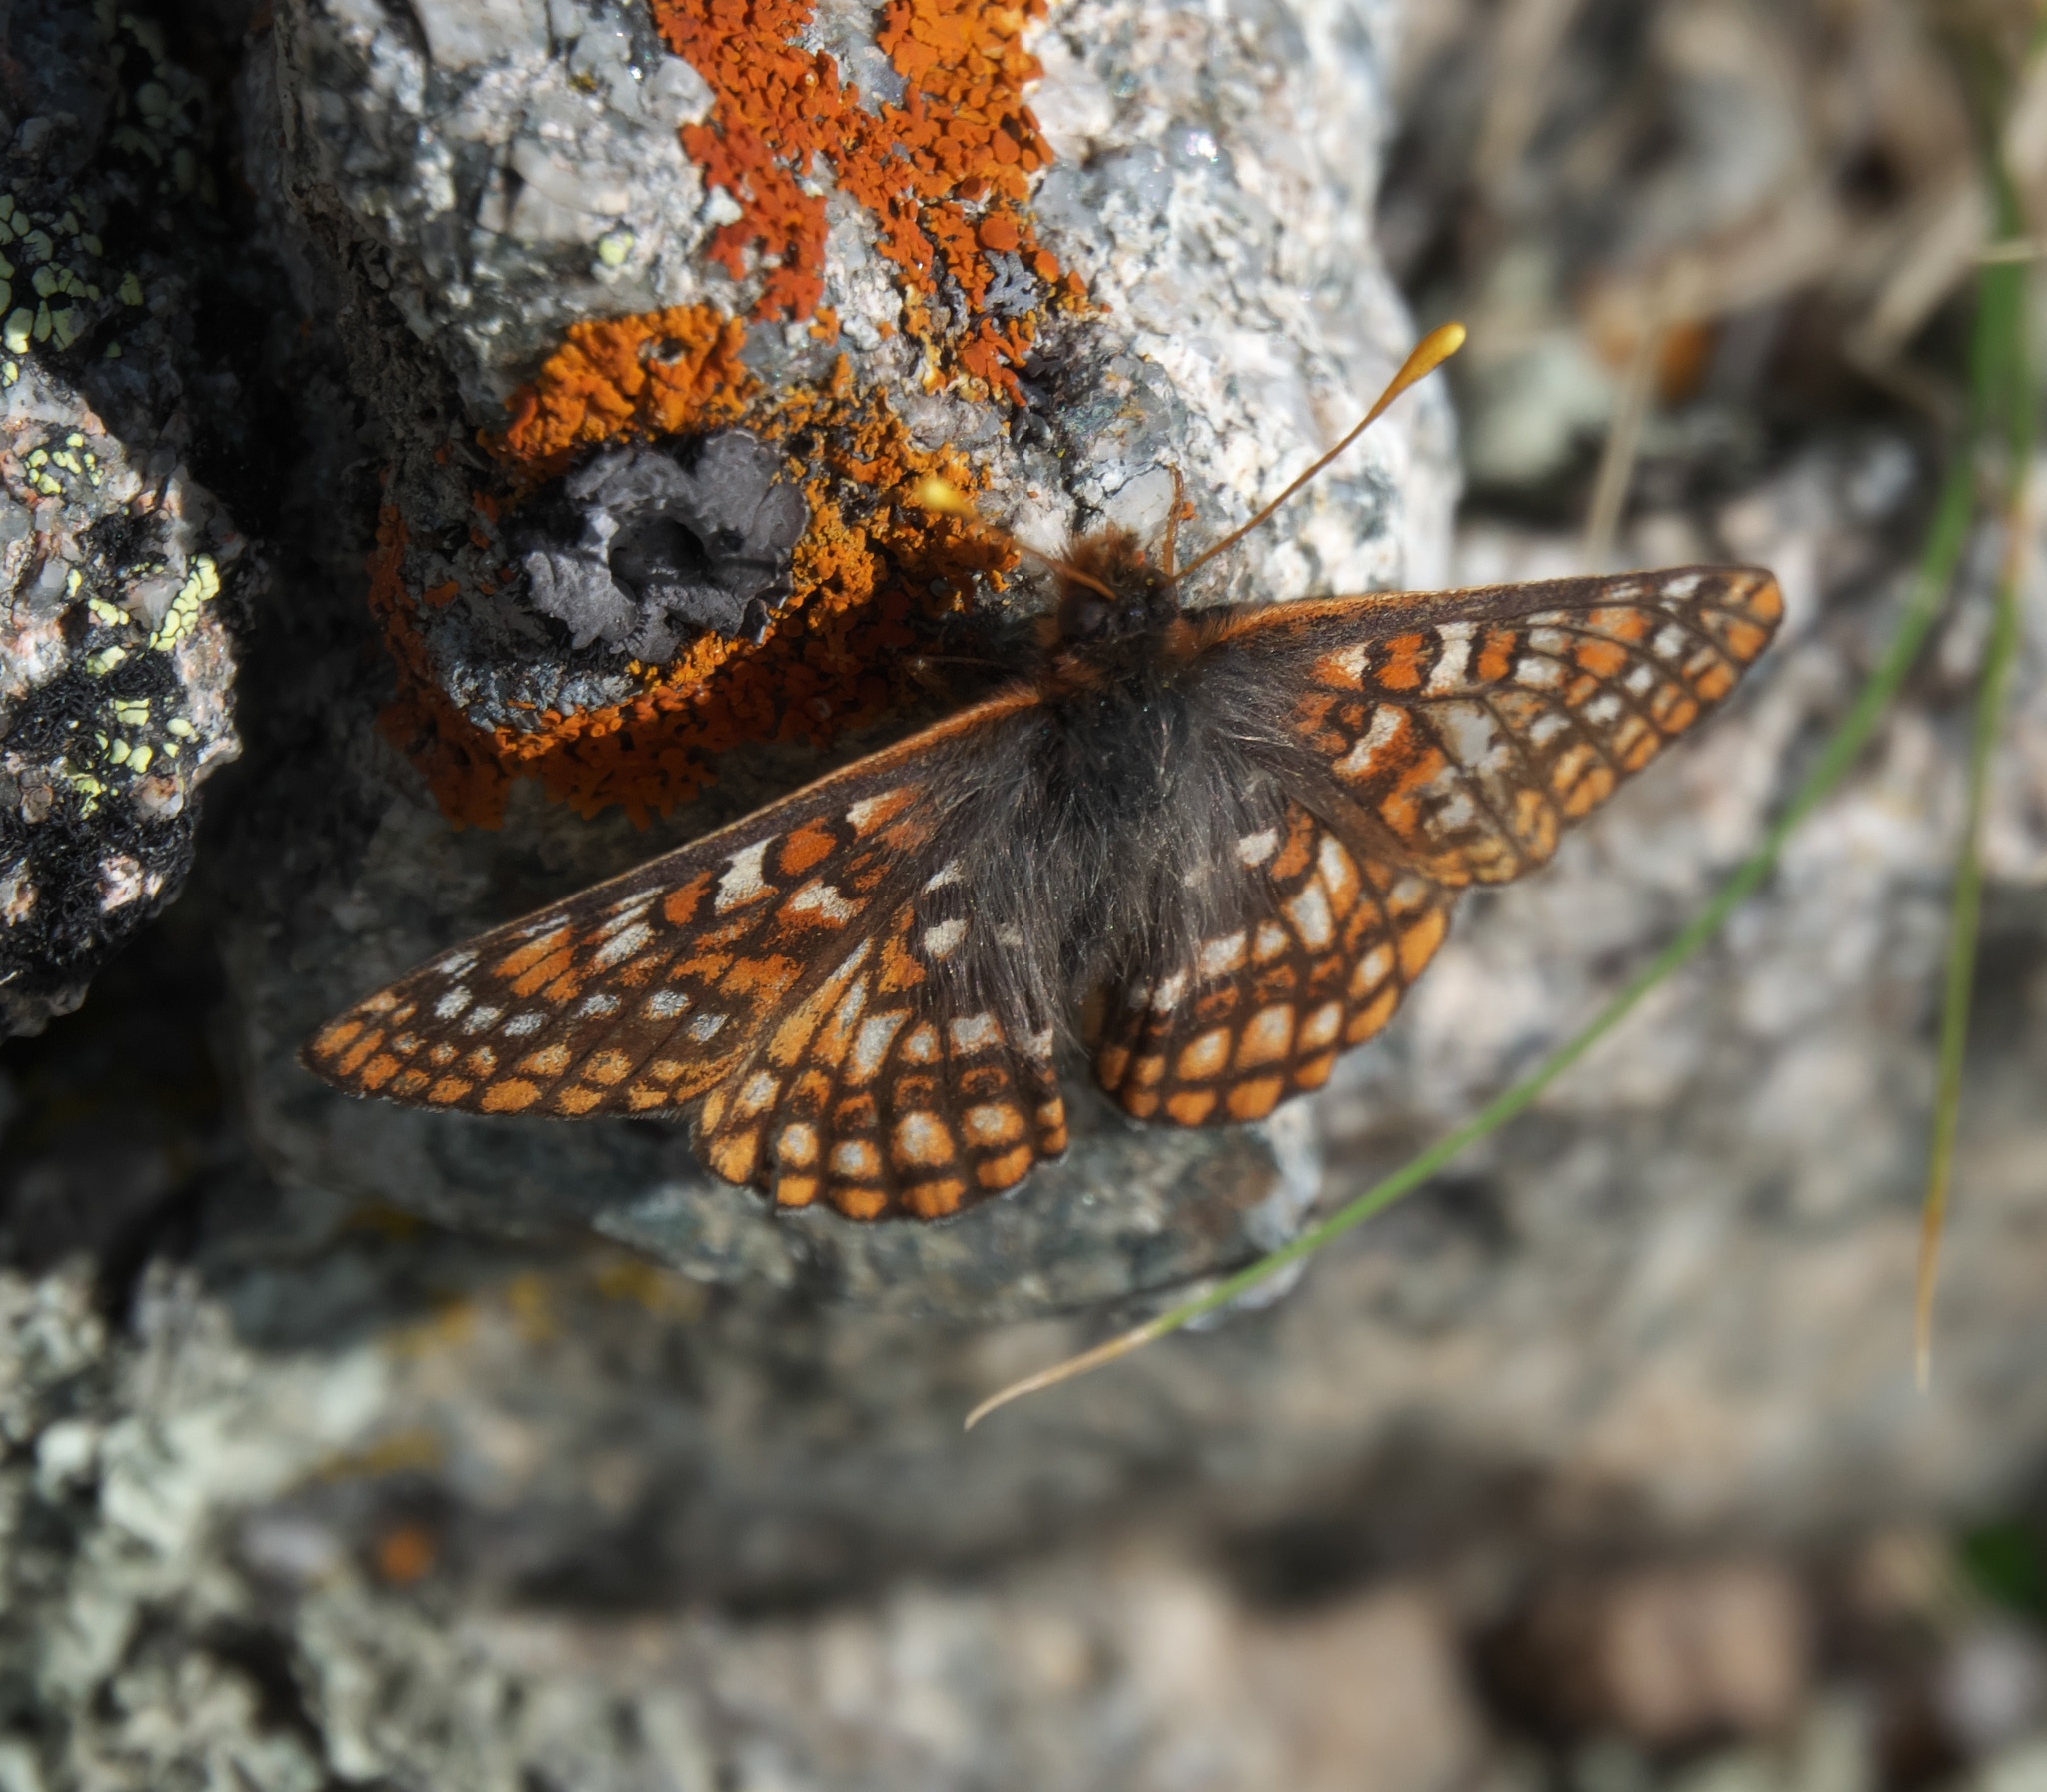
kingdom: Animalia
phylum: Arthropoda
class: Insecta
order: Lepidoptera
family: Nymphalidae
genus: Occidryas
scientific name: Occidryas anicia
